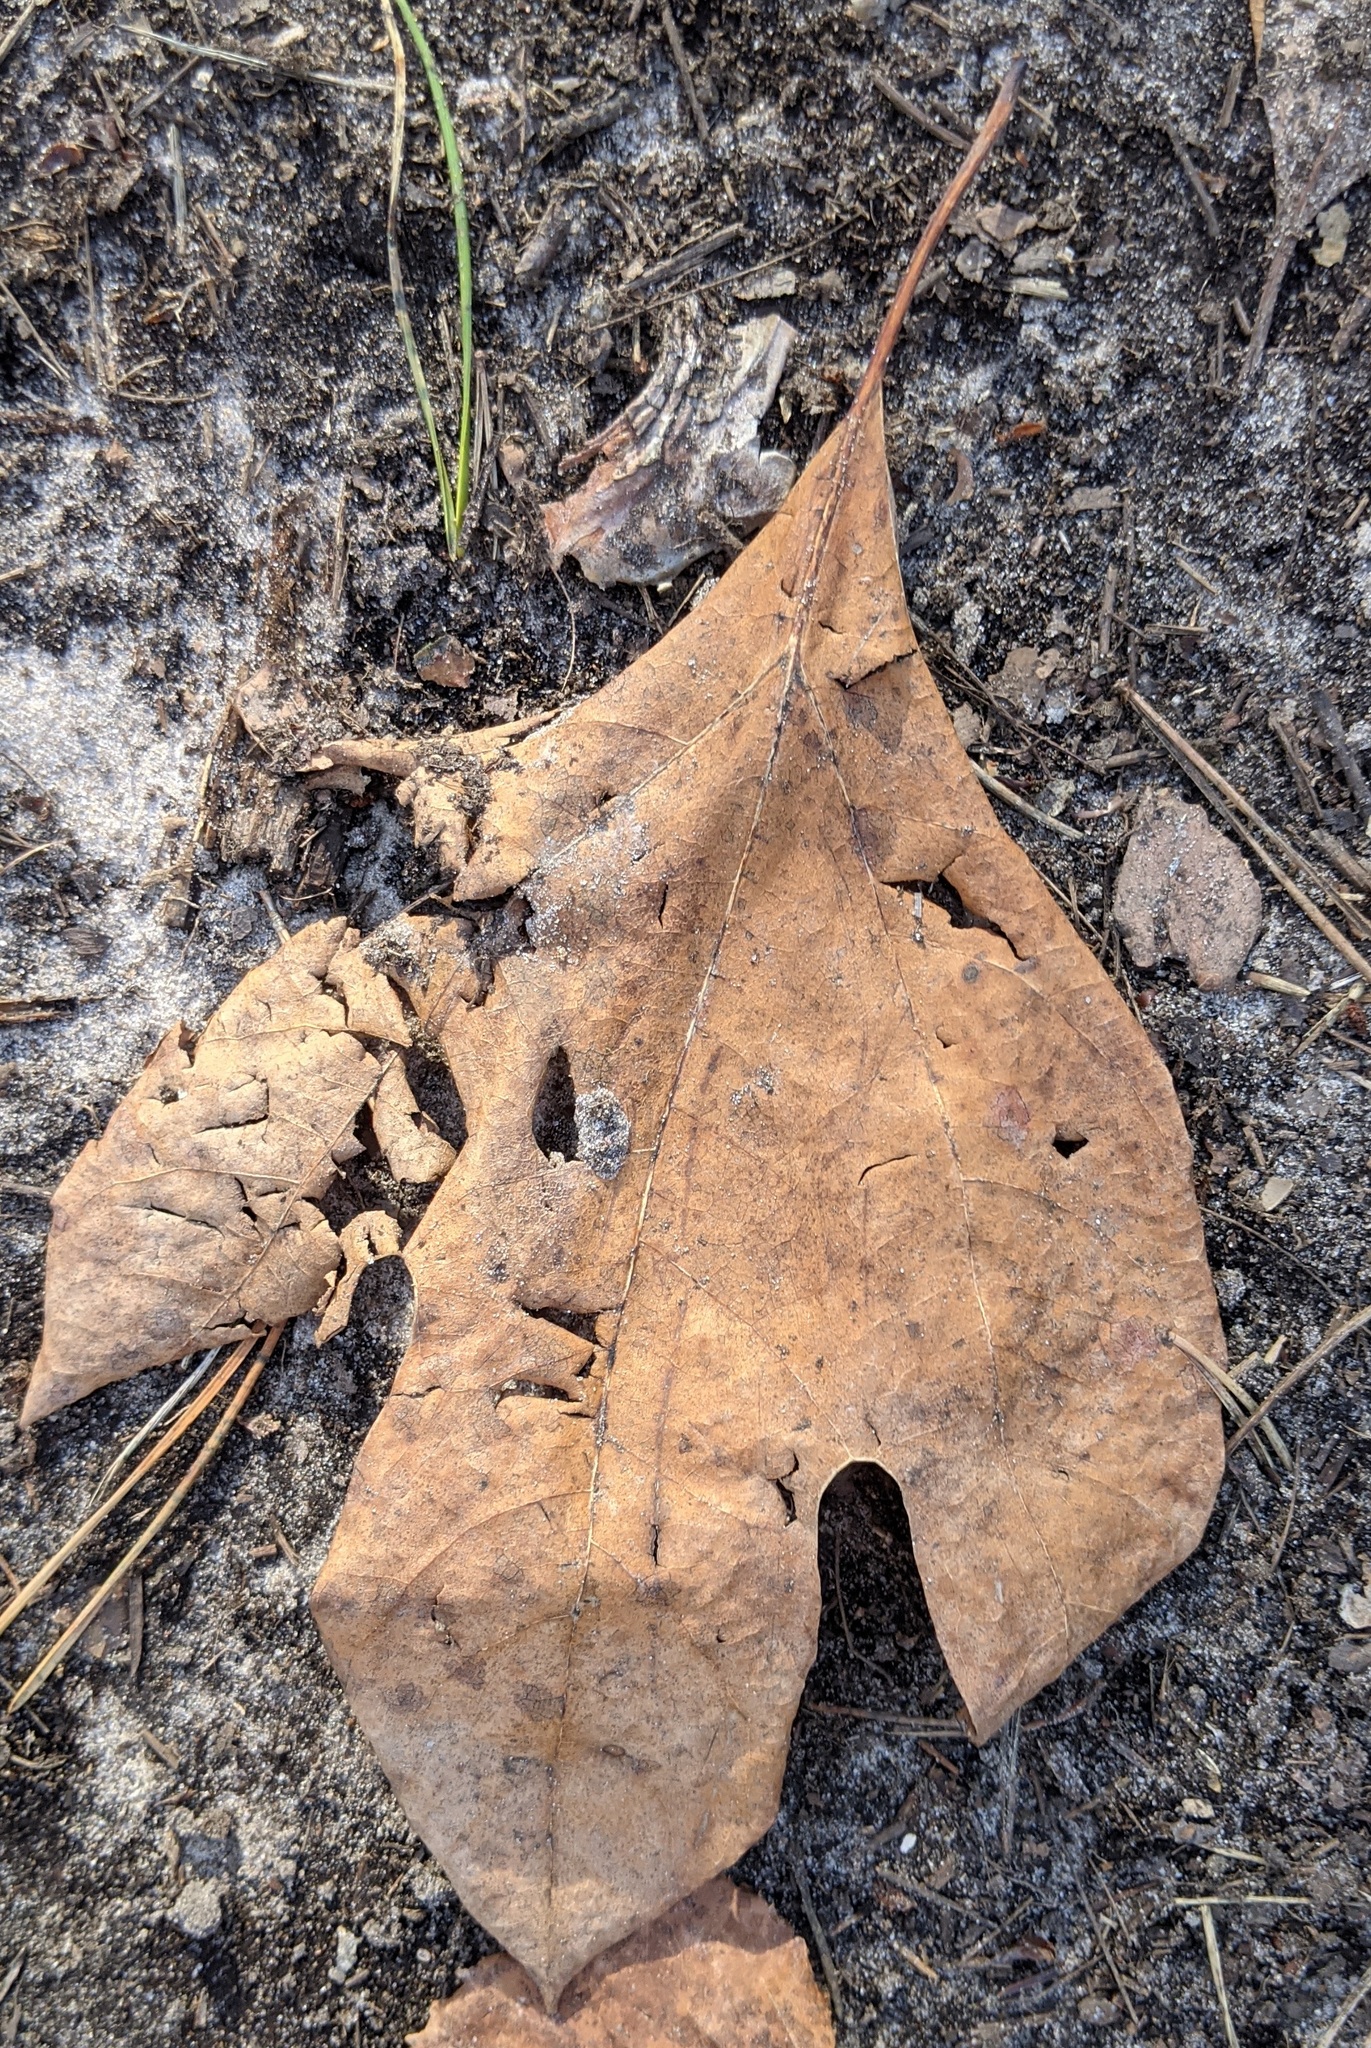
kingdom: Plantae
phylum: Tracheophyta
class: Magnoliopsida
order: Laurales
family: Lauraceae
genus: Sassafras
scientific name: Sassafras albidum
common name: Sassafras
